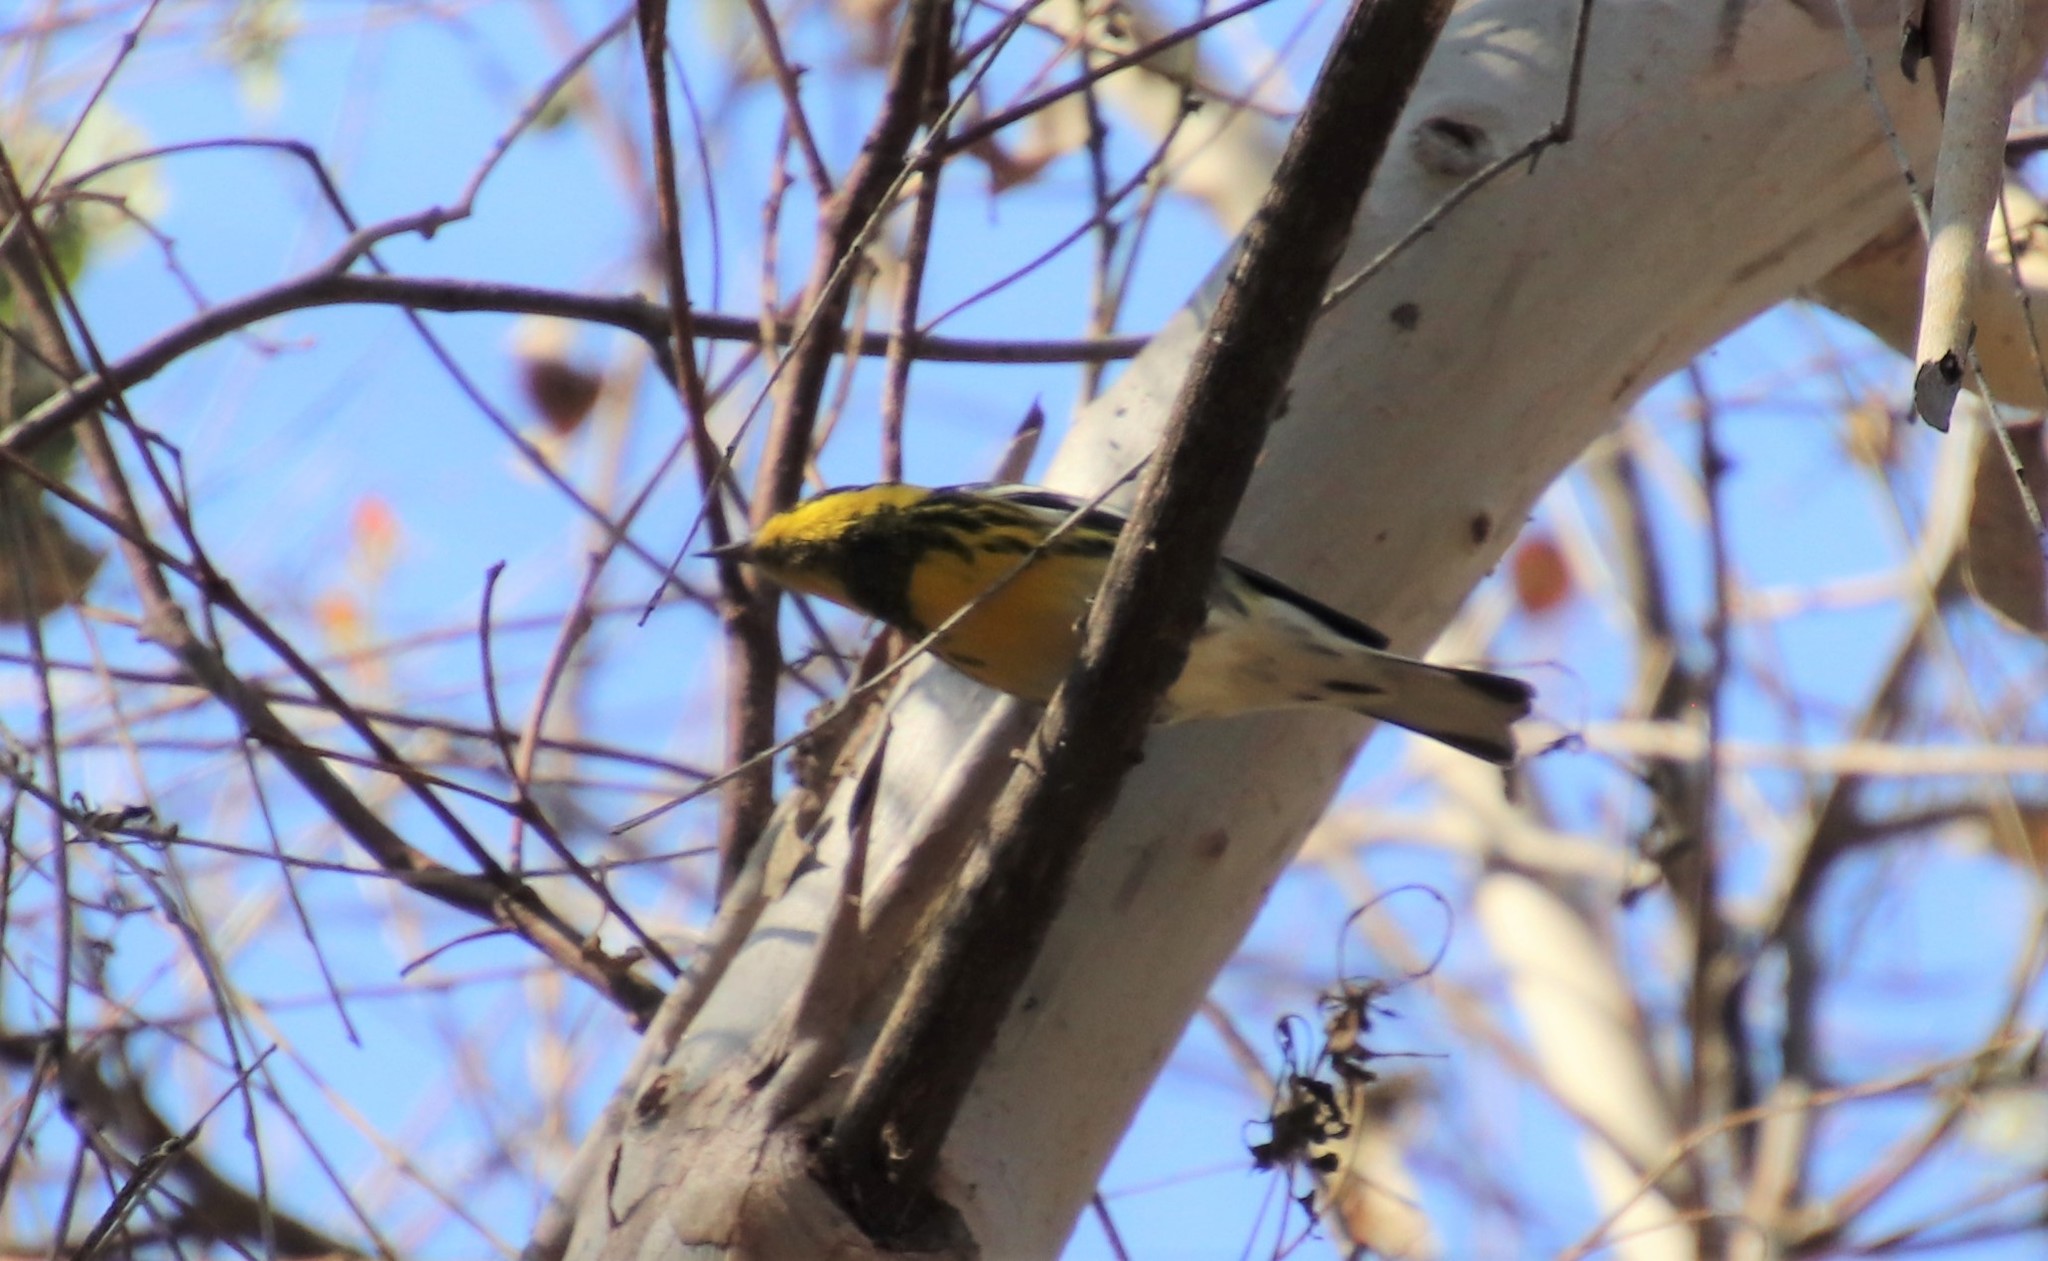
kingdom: Animalia
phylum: Chordata
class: Aves
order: Passeriformes
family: Parulidae
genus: Setophaga
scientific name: Setophaga townsendi
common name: Townsend's warbler
